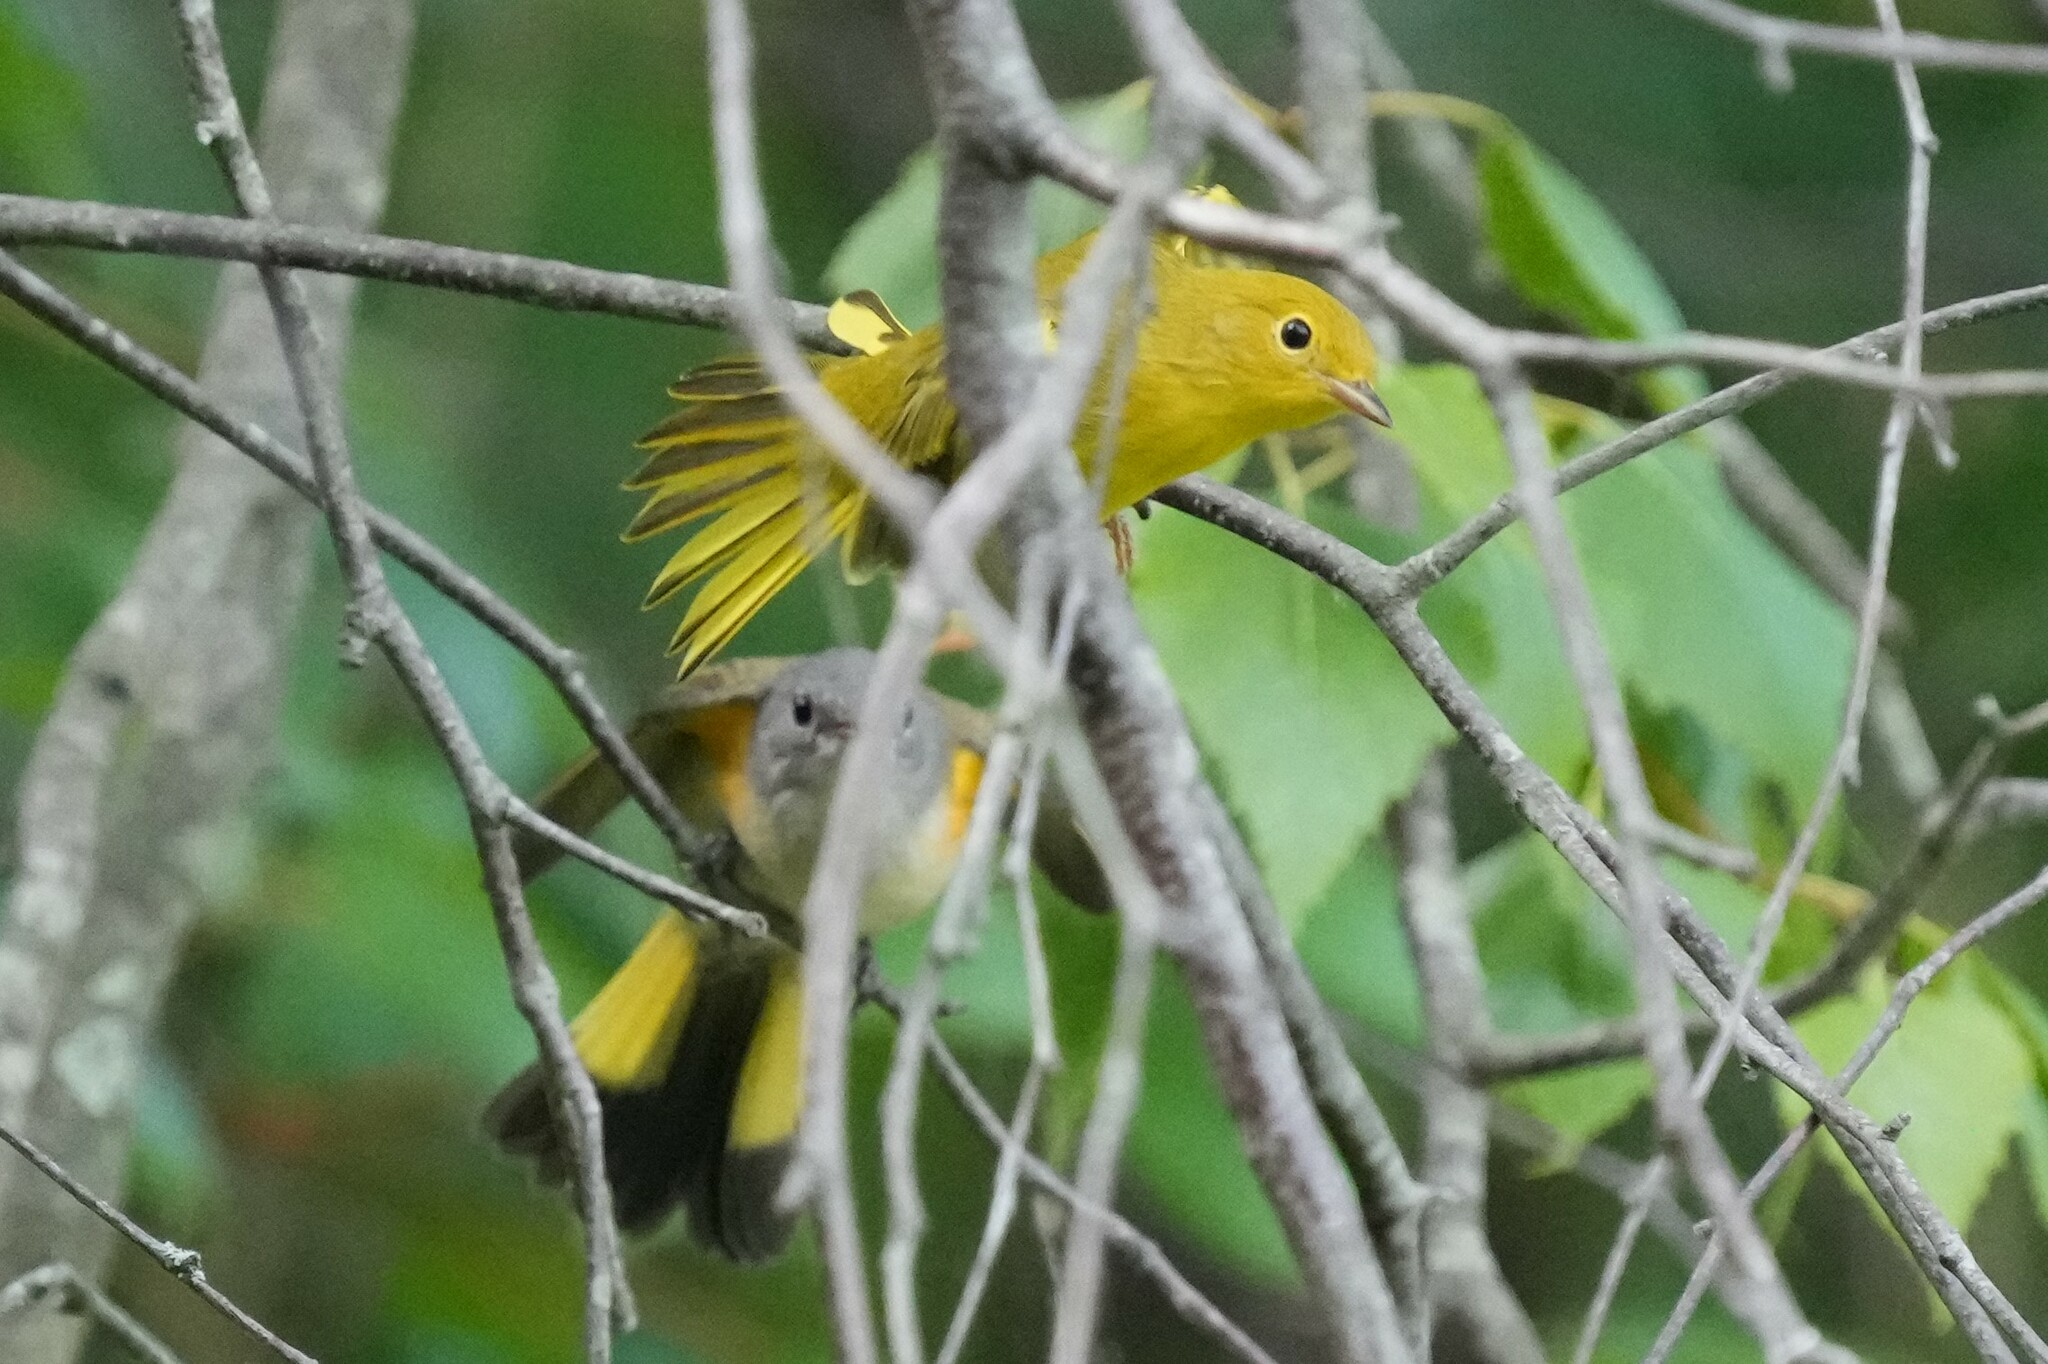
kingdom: Animalia
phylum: Chordata
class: Aves
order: Passeriformes
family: Parulidae
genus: Setophaga
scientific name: Setophaga petechia
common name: Yellow warbler
